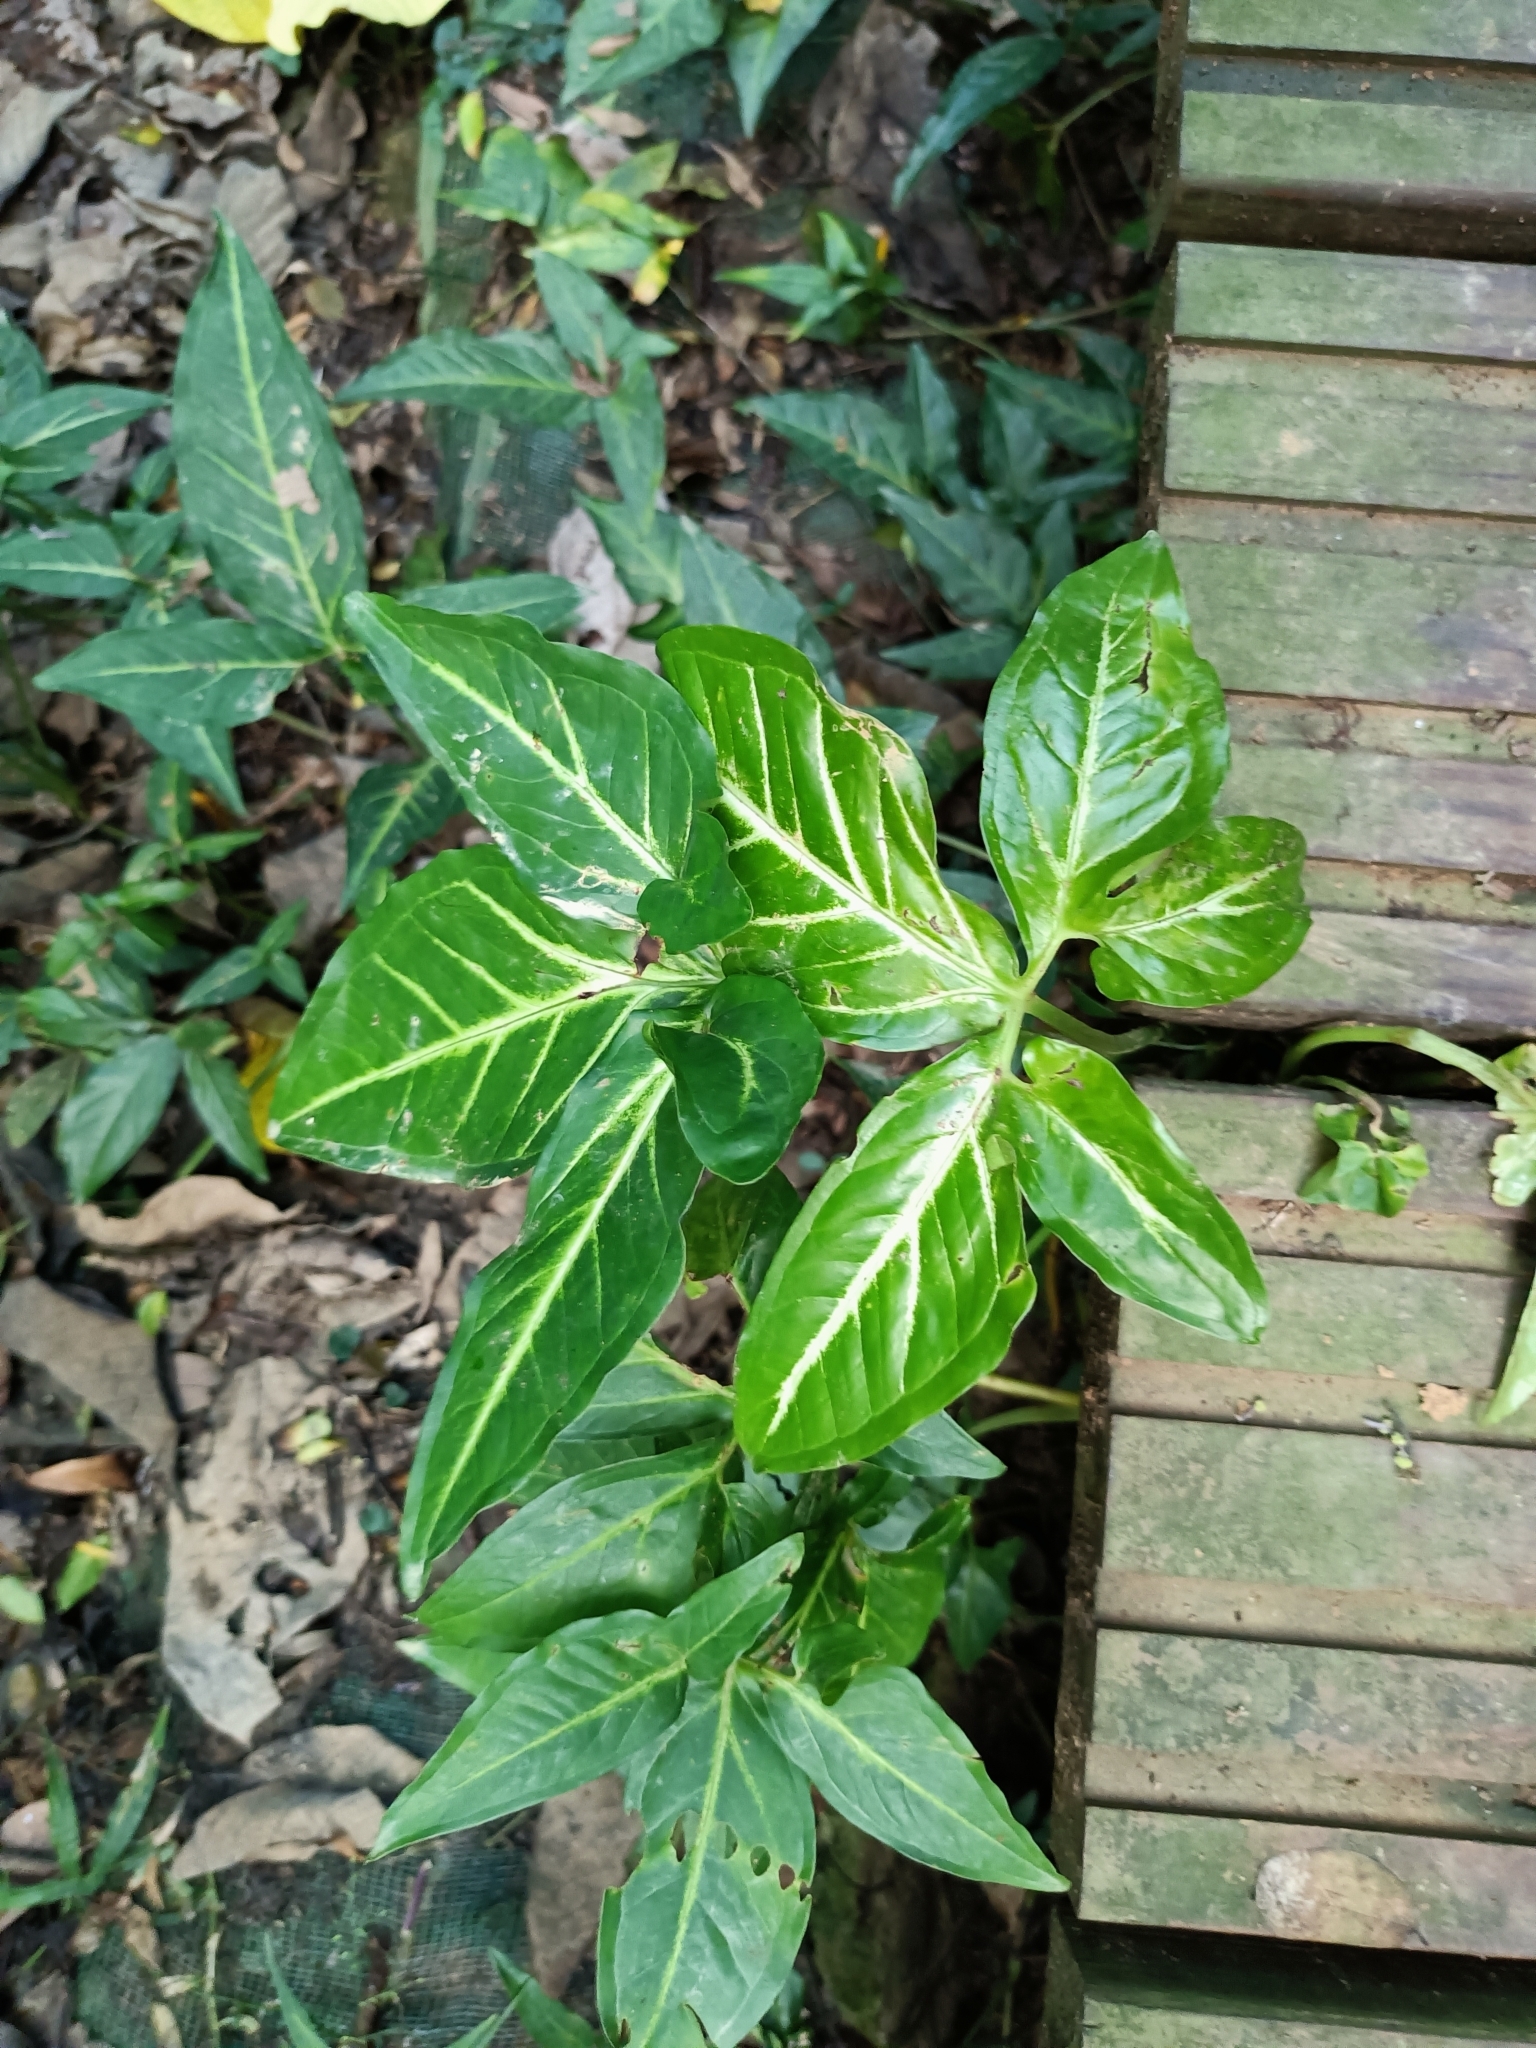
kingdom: Plantae
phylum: Tracheophyta
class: Liliopsida
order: Alismatales
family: Araceae
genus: Syngonium
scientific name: Syngonium podophyllum
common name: American evergreen
